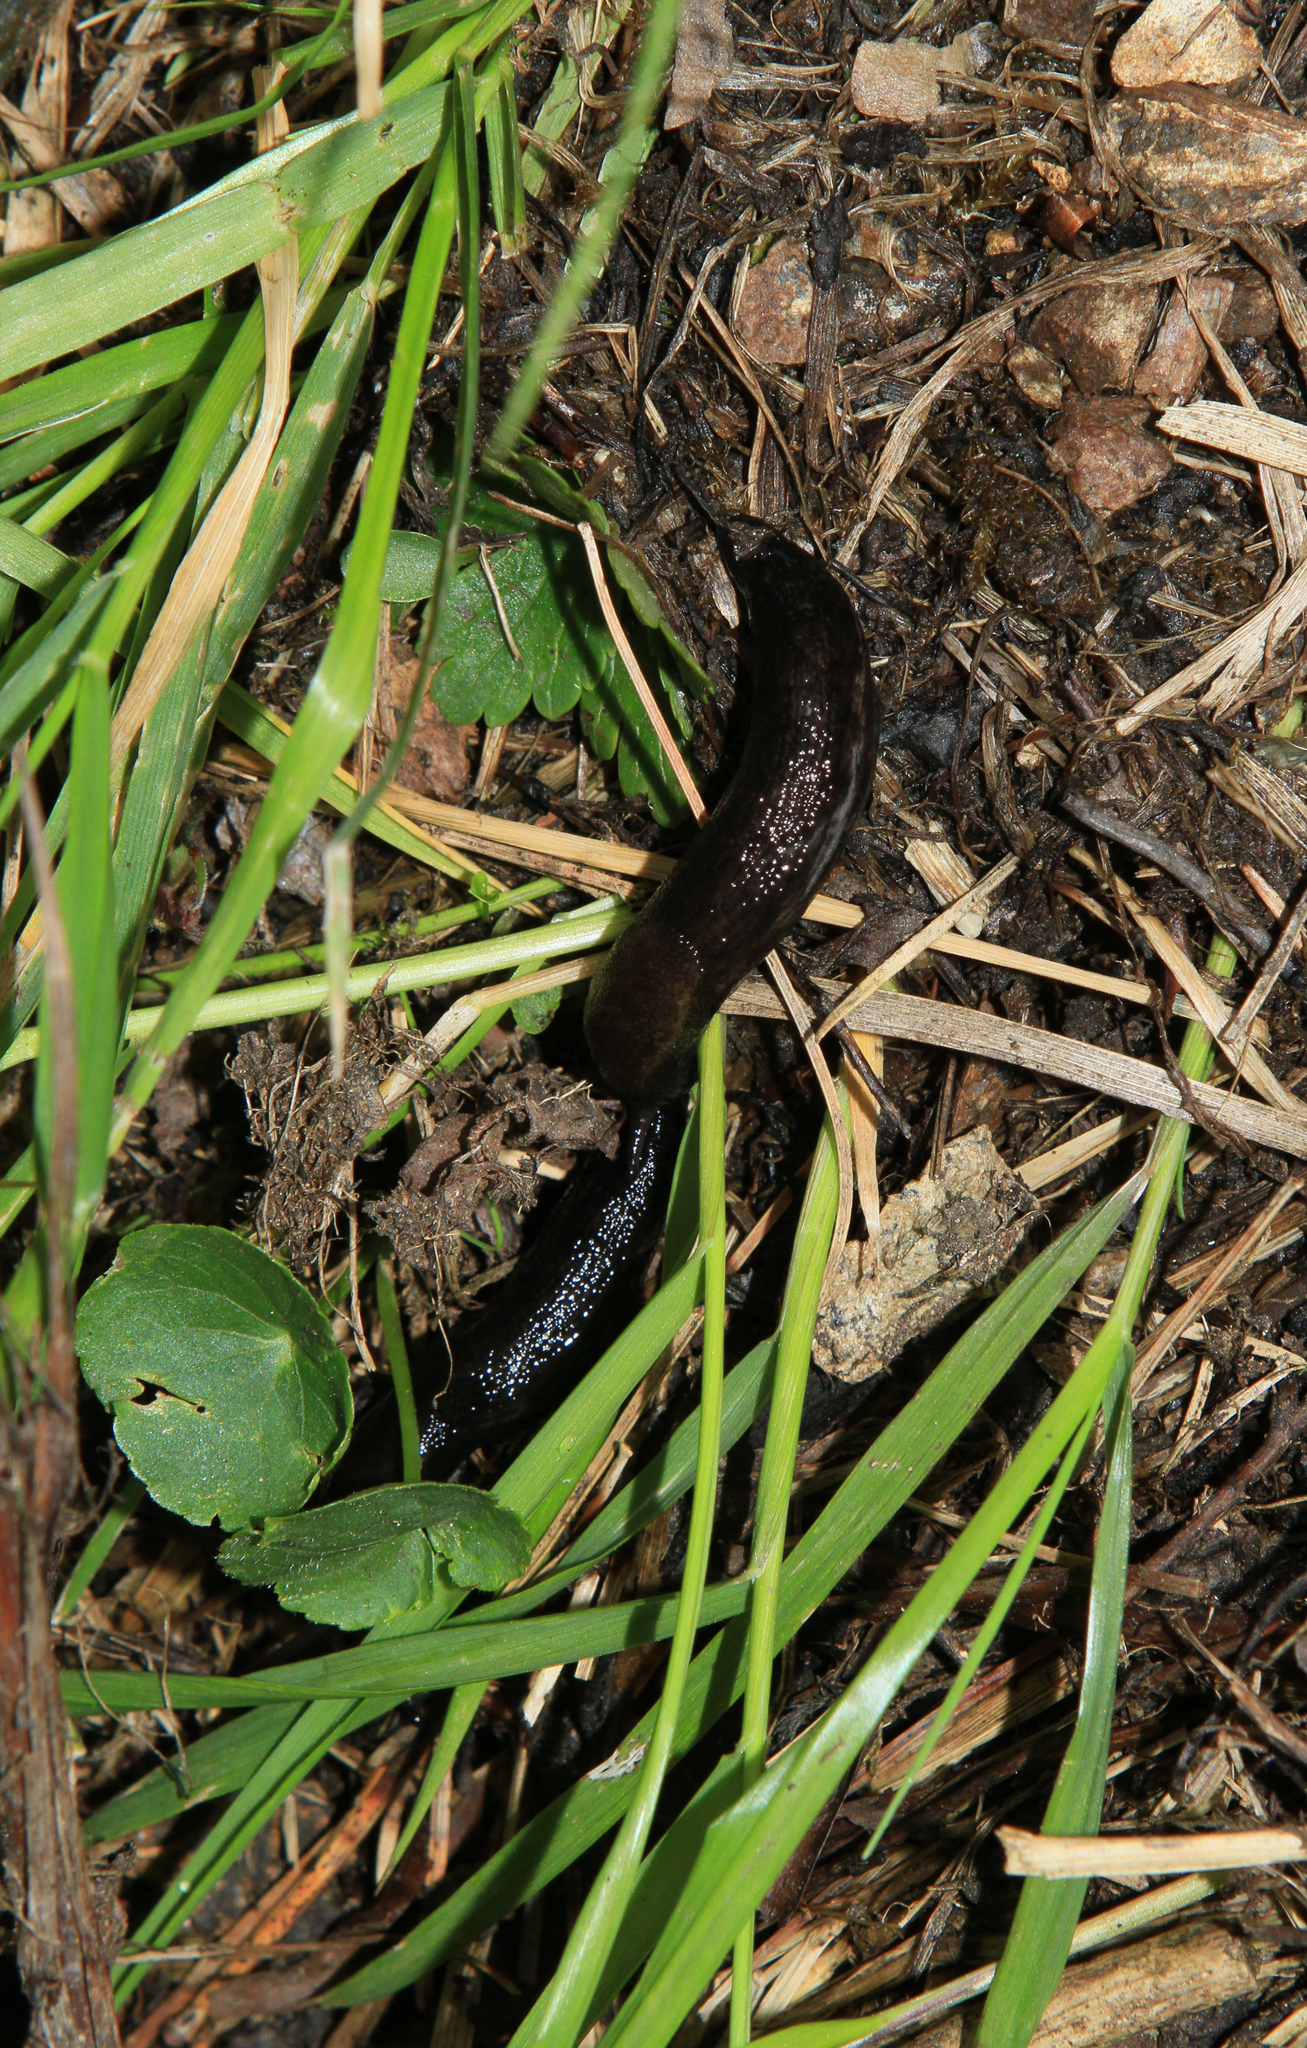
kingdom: Animalia
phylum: Mollusca
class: Gastropoda
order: Stylommatophora
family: Arionidae
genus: Arion
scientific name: Arion sibiricus
